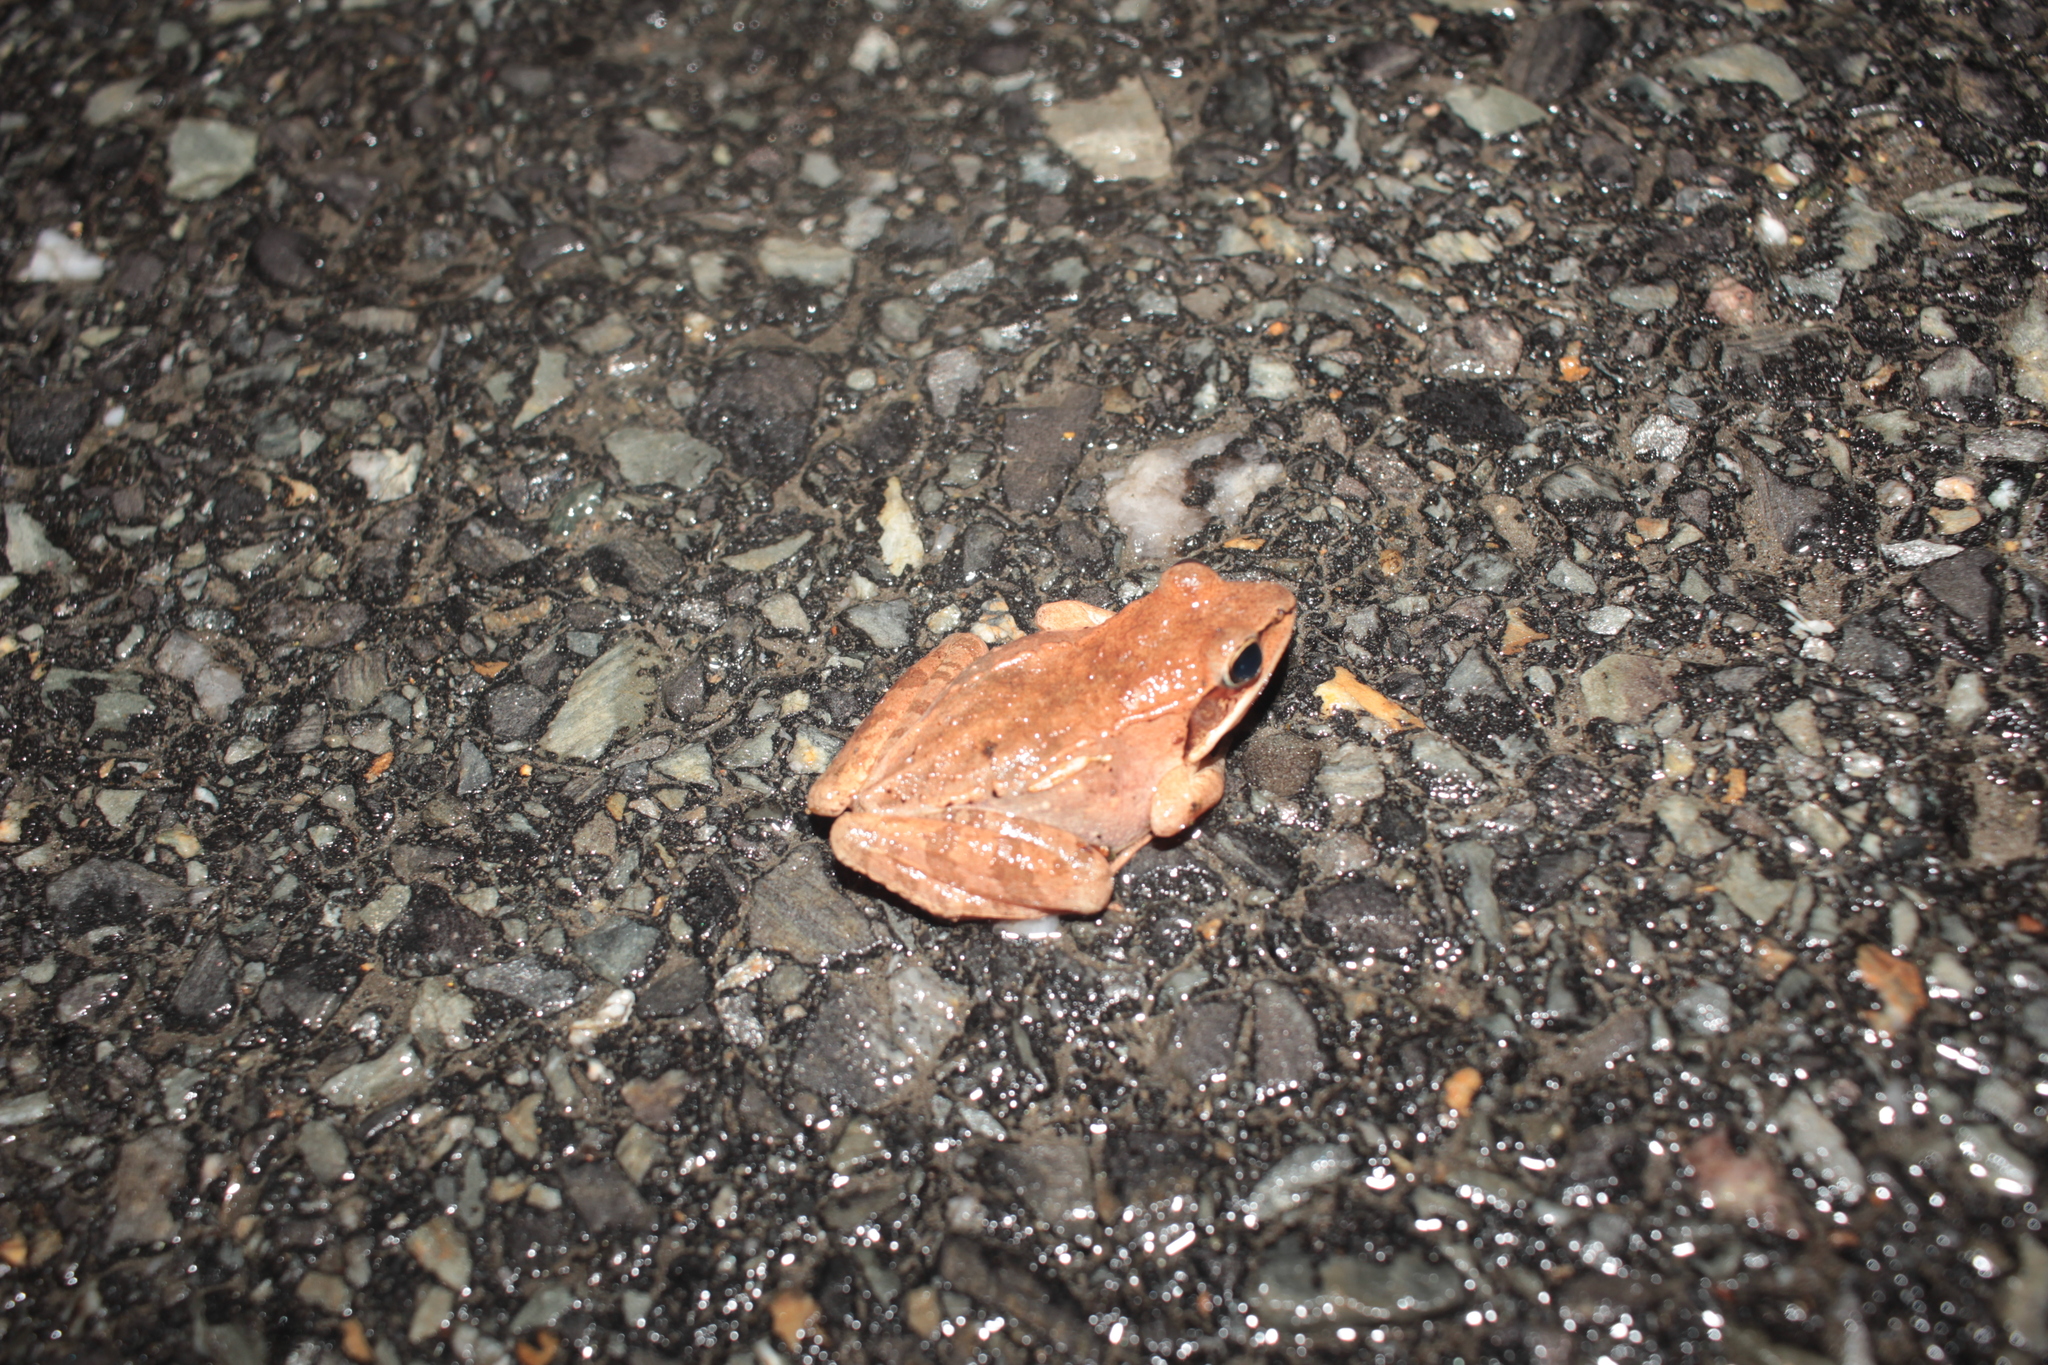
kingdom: Animalia
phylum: Chordata
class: Amphibia
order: Anura
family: Ranidae
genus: Lithobates
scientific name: Lithobates sylvaticus
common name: Wood frog
